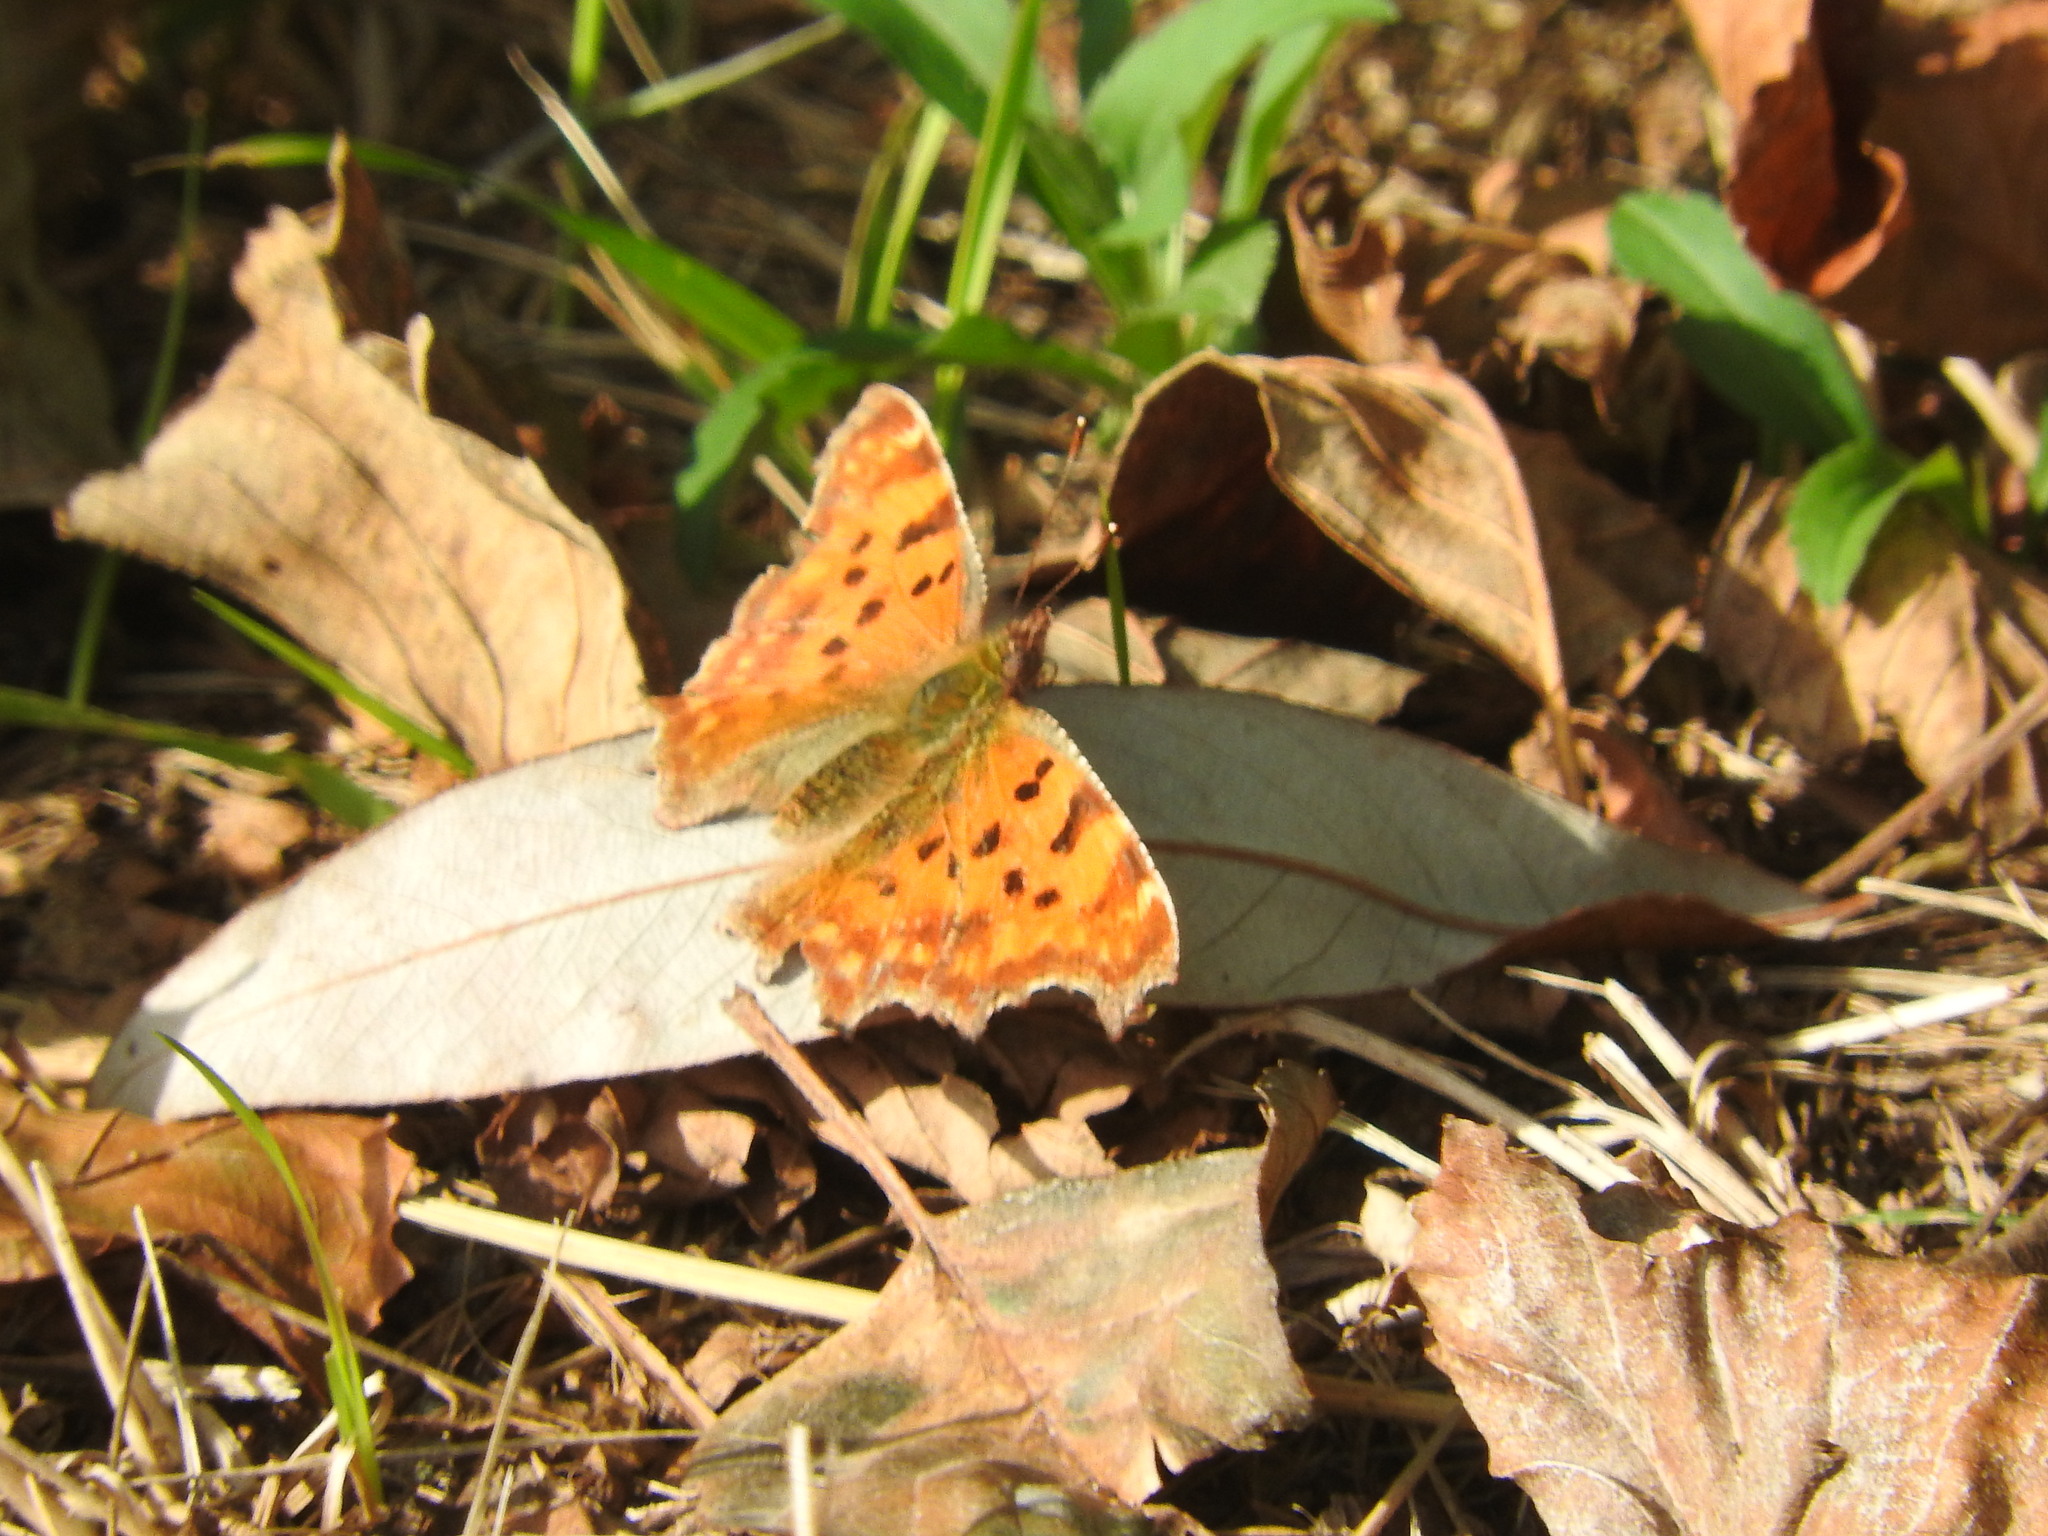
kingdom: Animalia
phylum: Arthropoda
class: Insecta
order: Lepidoptera
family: Nymphalidae
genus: Polygonia
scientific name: Polygonia c-album
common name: Comma
